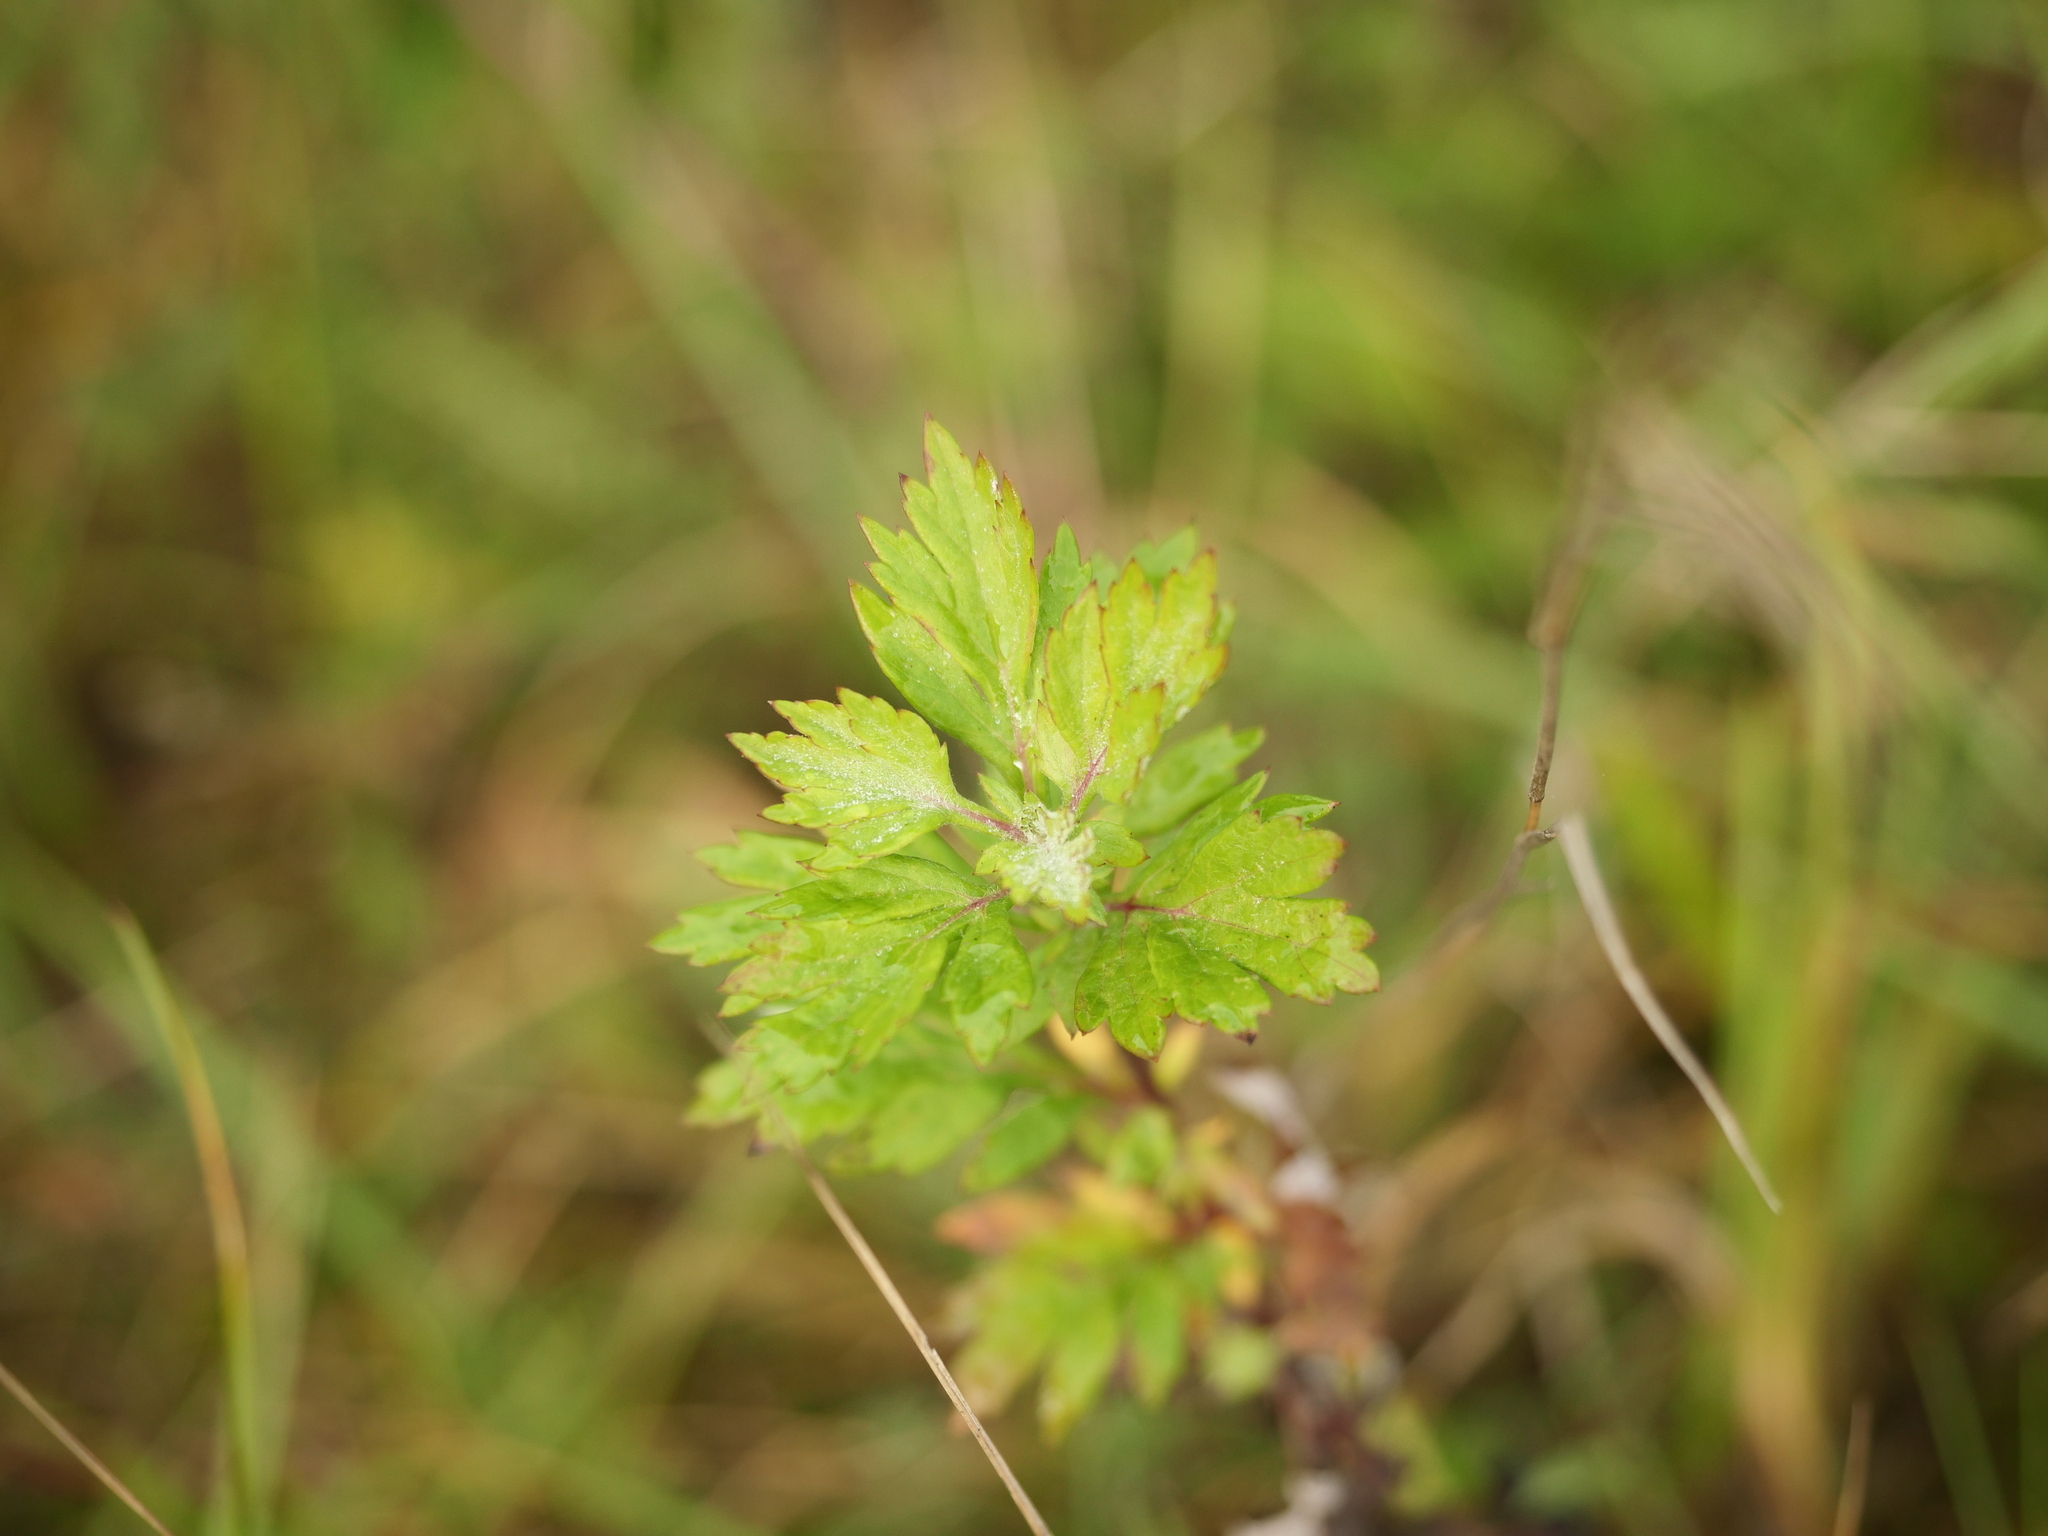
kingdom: Plantae
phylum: Tracheophyta
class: Magnoliopsida
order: Asterales
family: Asteraceae
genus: Artemisia
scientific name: Artemisia vulgaris
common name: Mugwort
